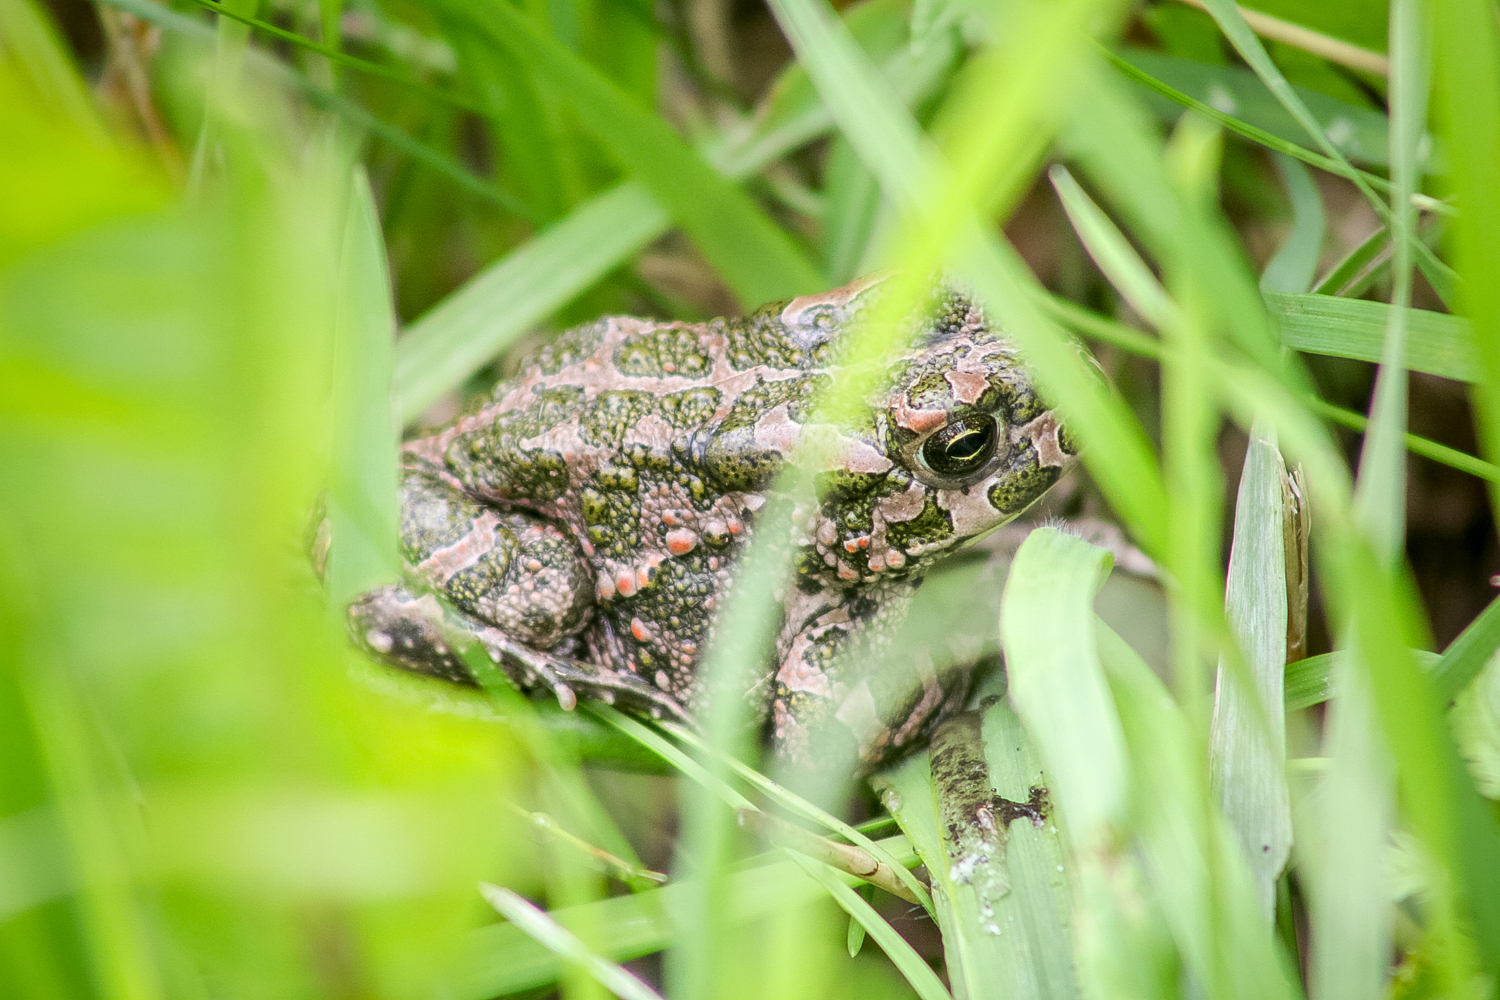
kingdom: Animalia
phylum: Chordata
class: Amphibia
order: Anura
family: Bufonidae
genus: Bufotes
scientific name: Bufotes viridis
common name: European green toad
